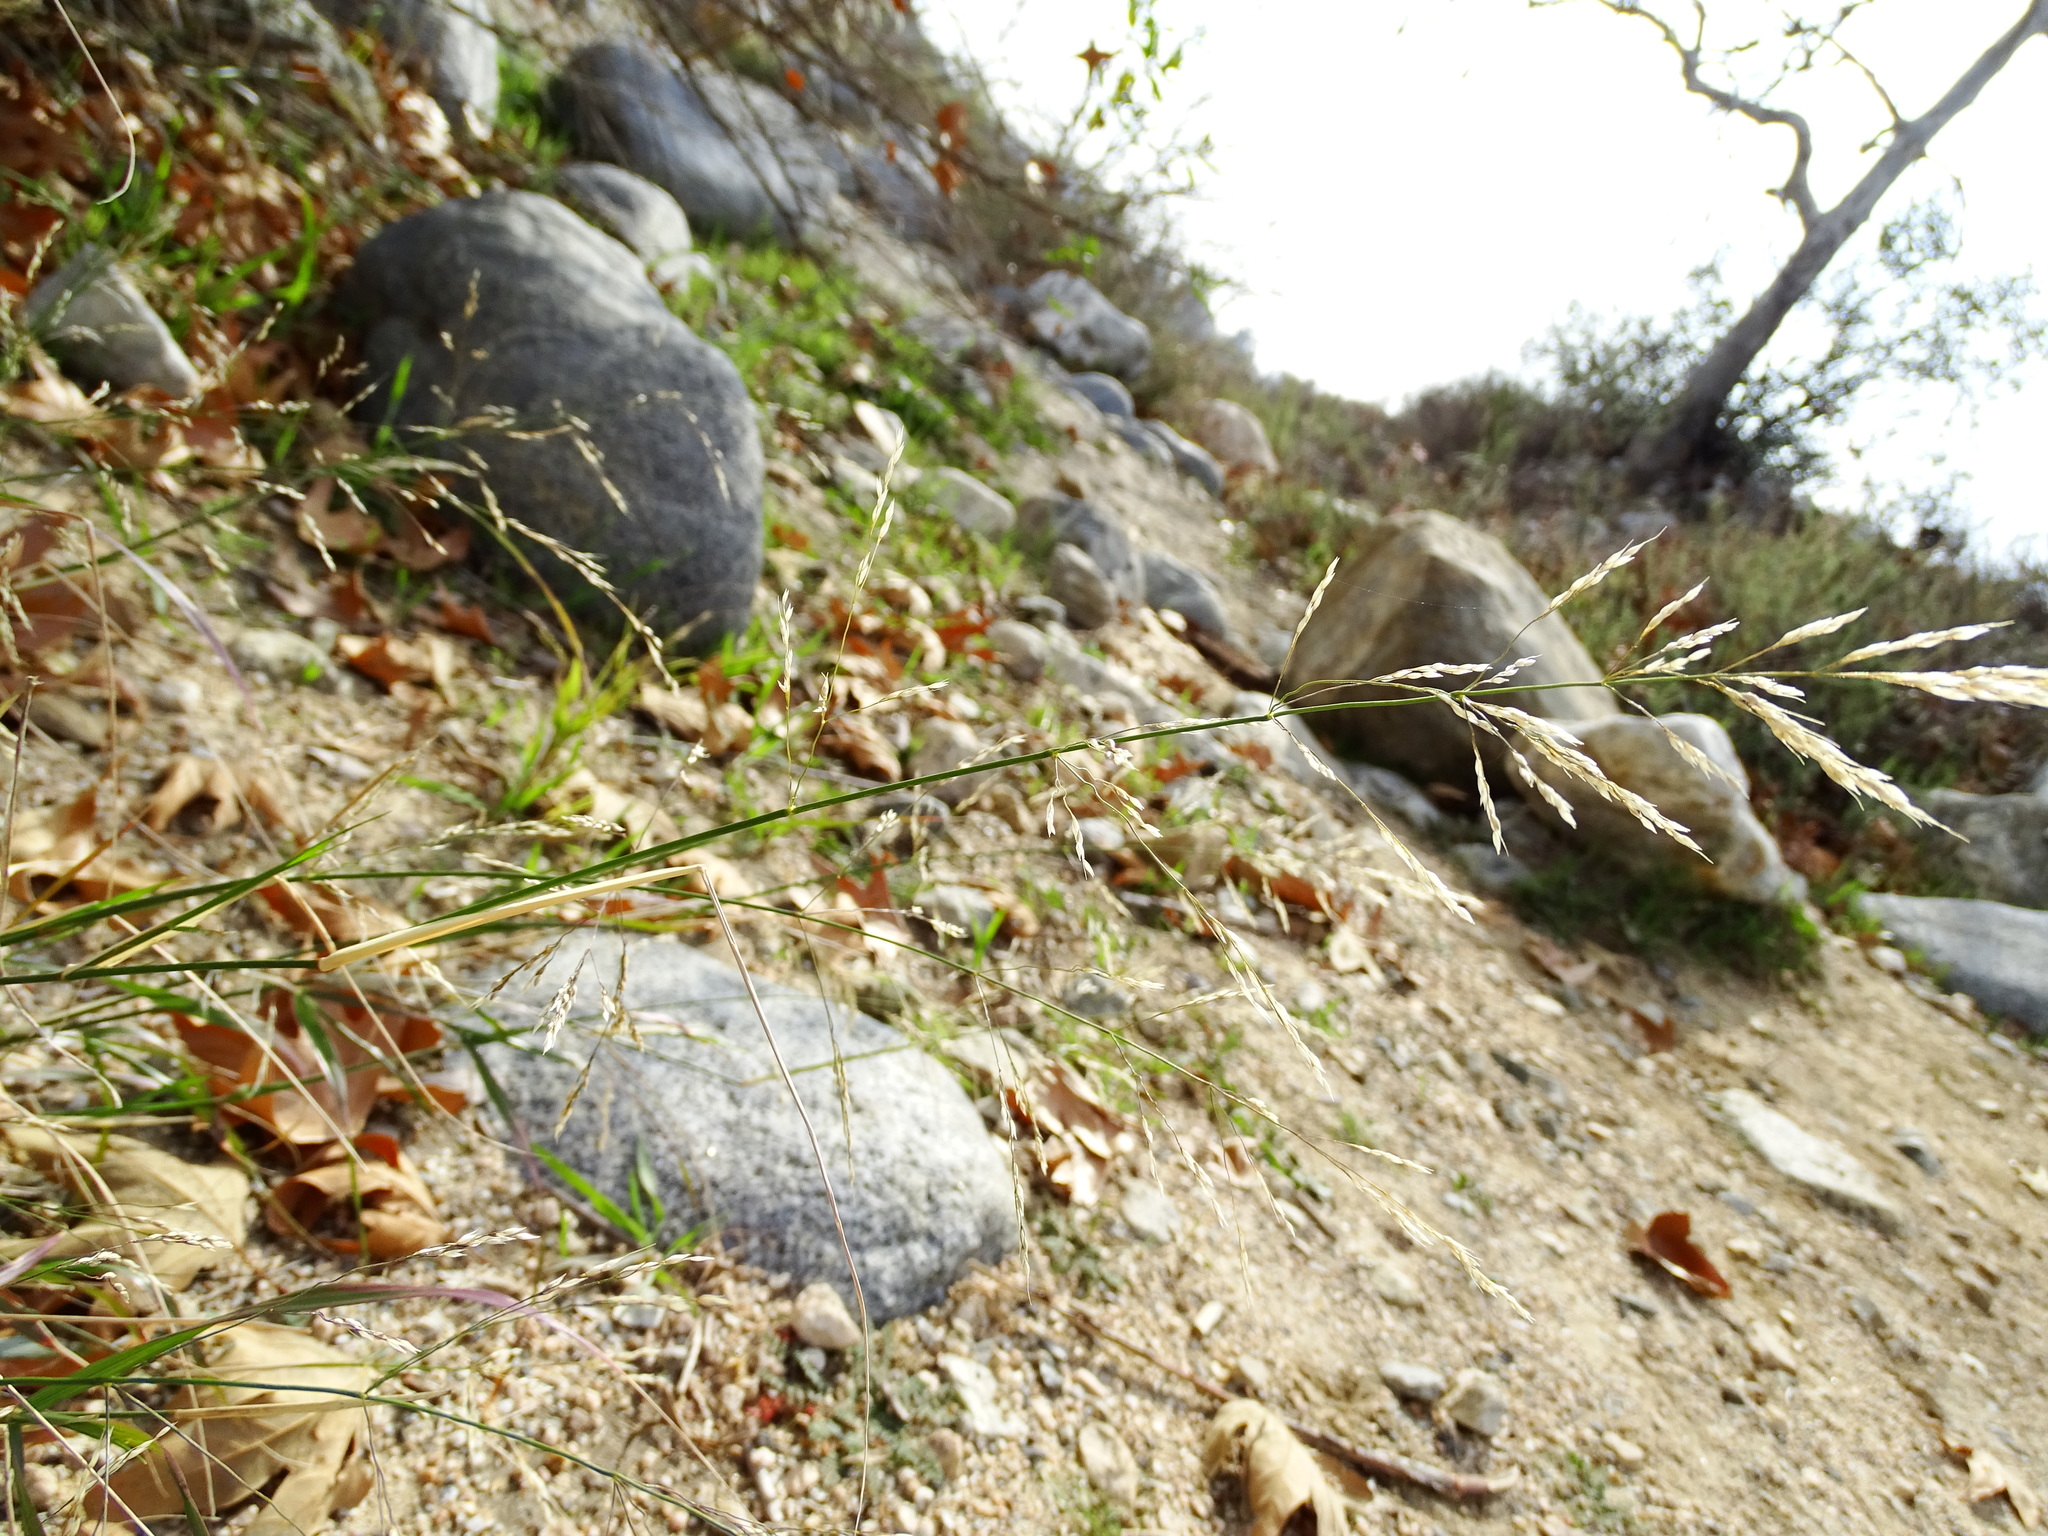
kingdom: Plantae
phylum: Tracheophyta
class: Liliopsida
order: Poales
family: Poaceae
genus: Oloptum
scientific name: Oloptum miliaceum
